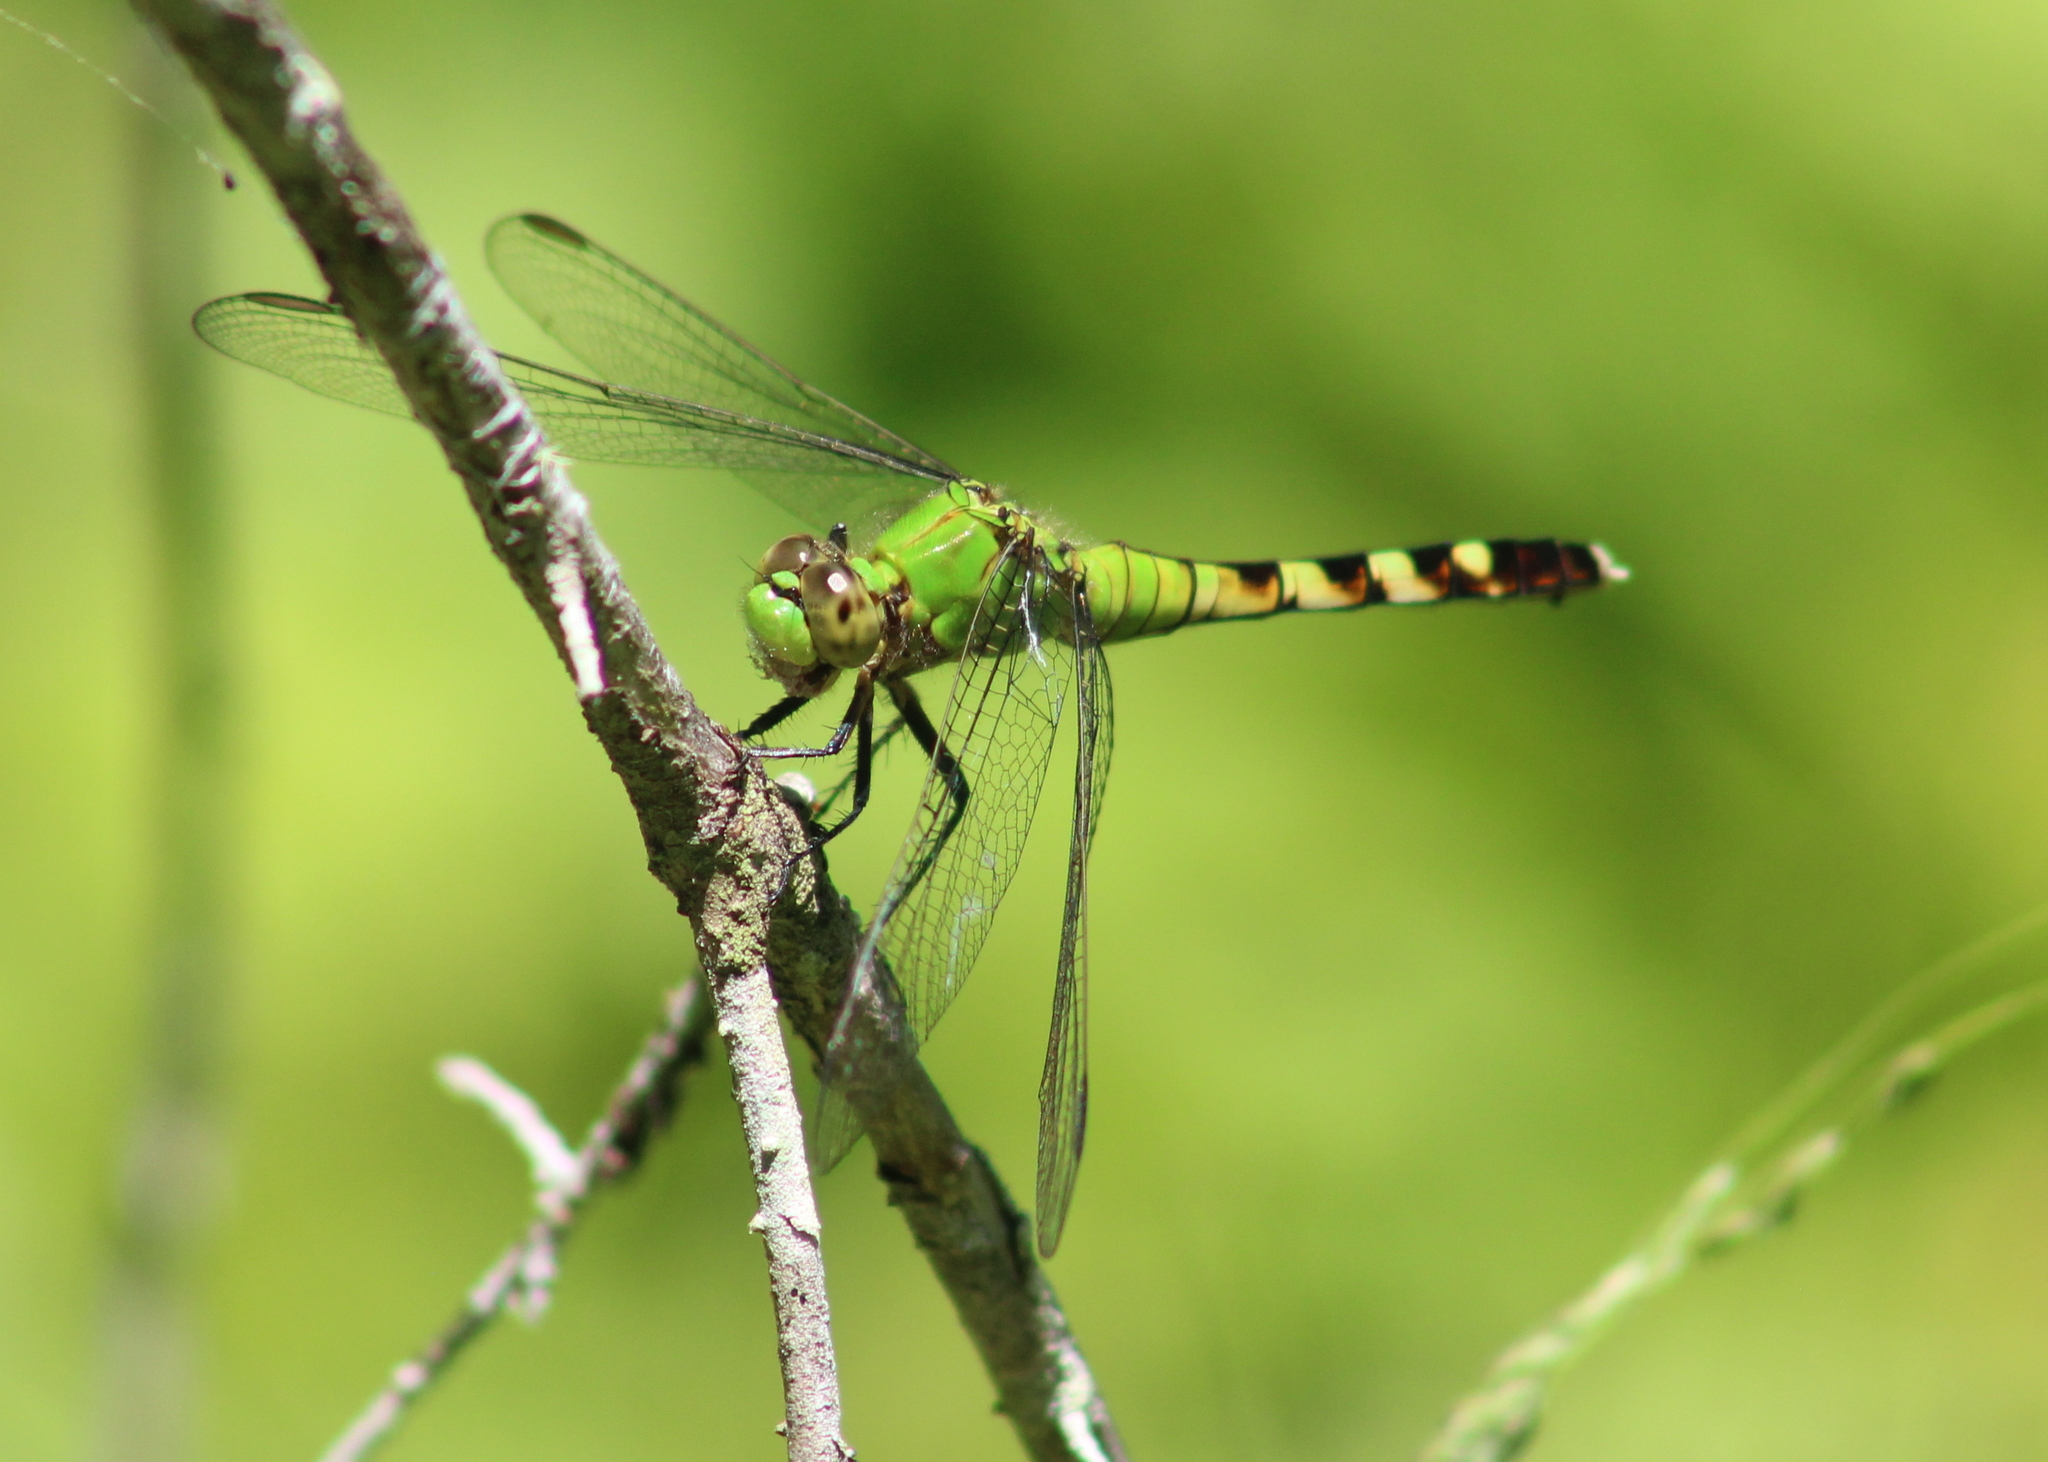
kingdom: Animalia
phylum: Arthropoda
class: Insecta
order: Odonata
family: Libellulidae
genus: Erythemis
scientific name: Erythemis simplicicollis
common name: Eastern pondhawk
